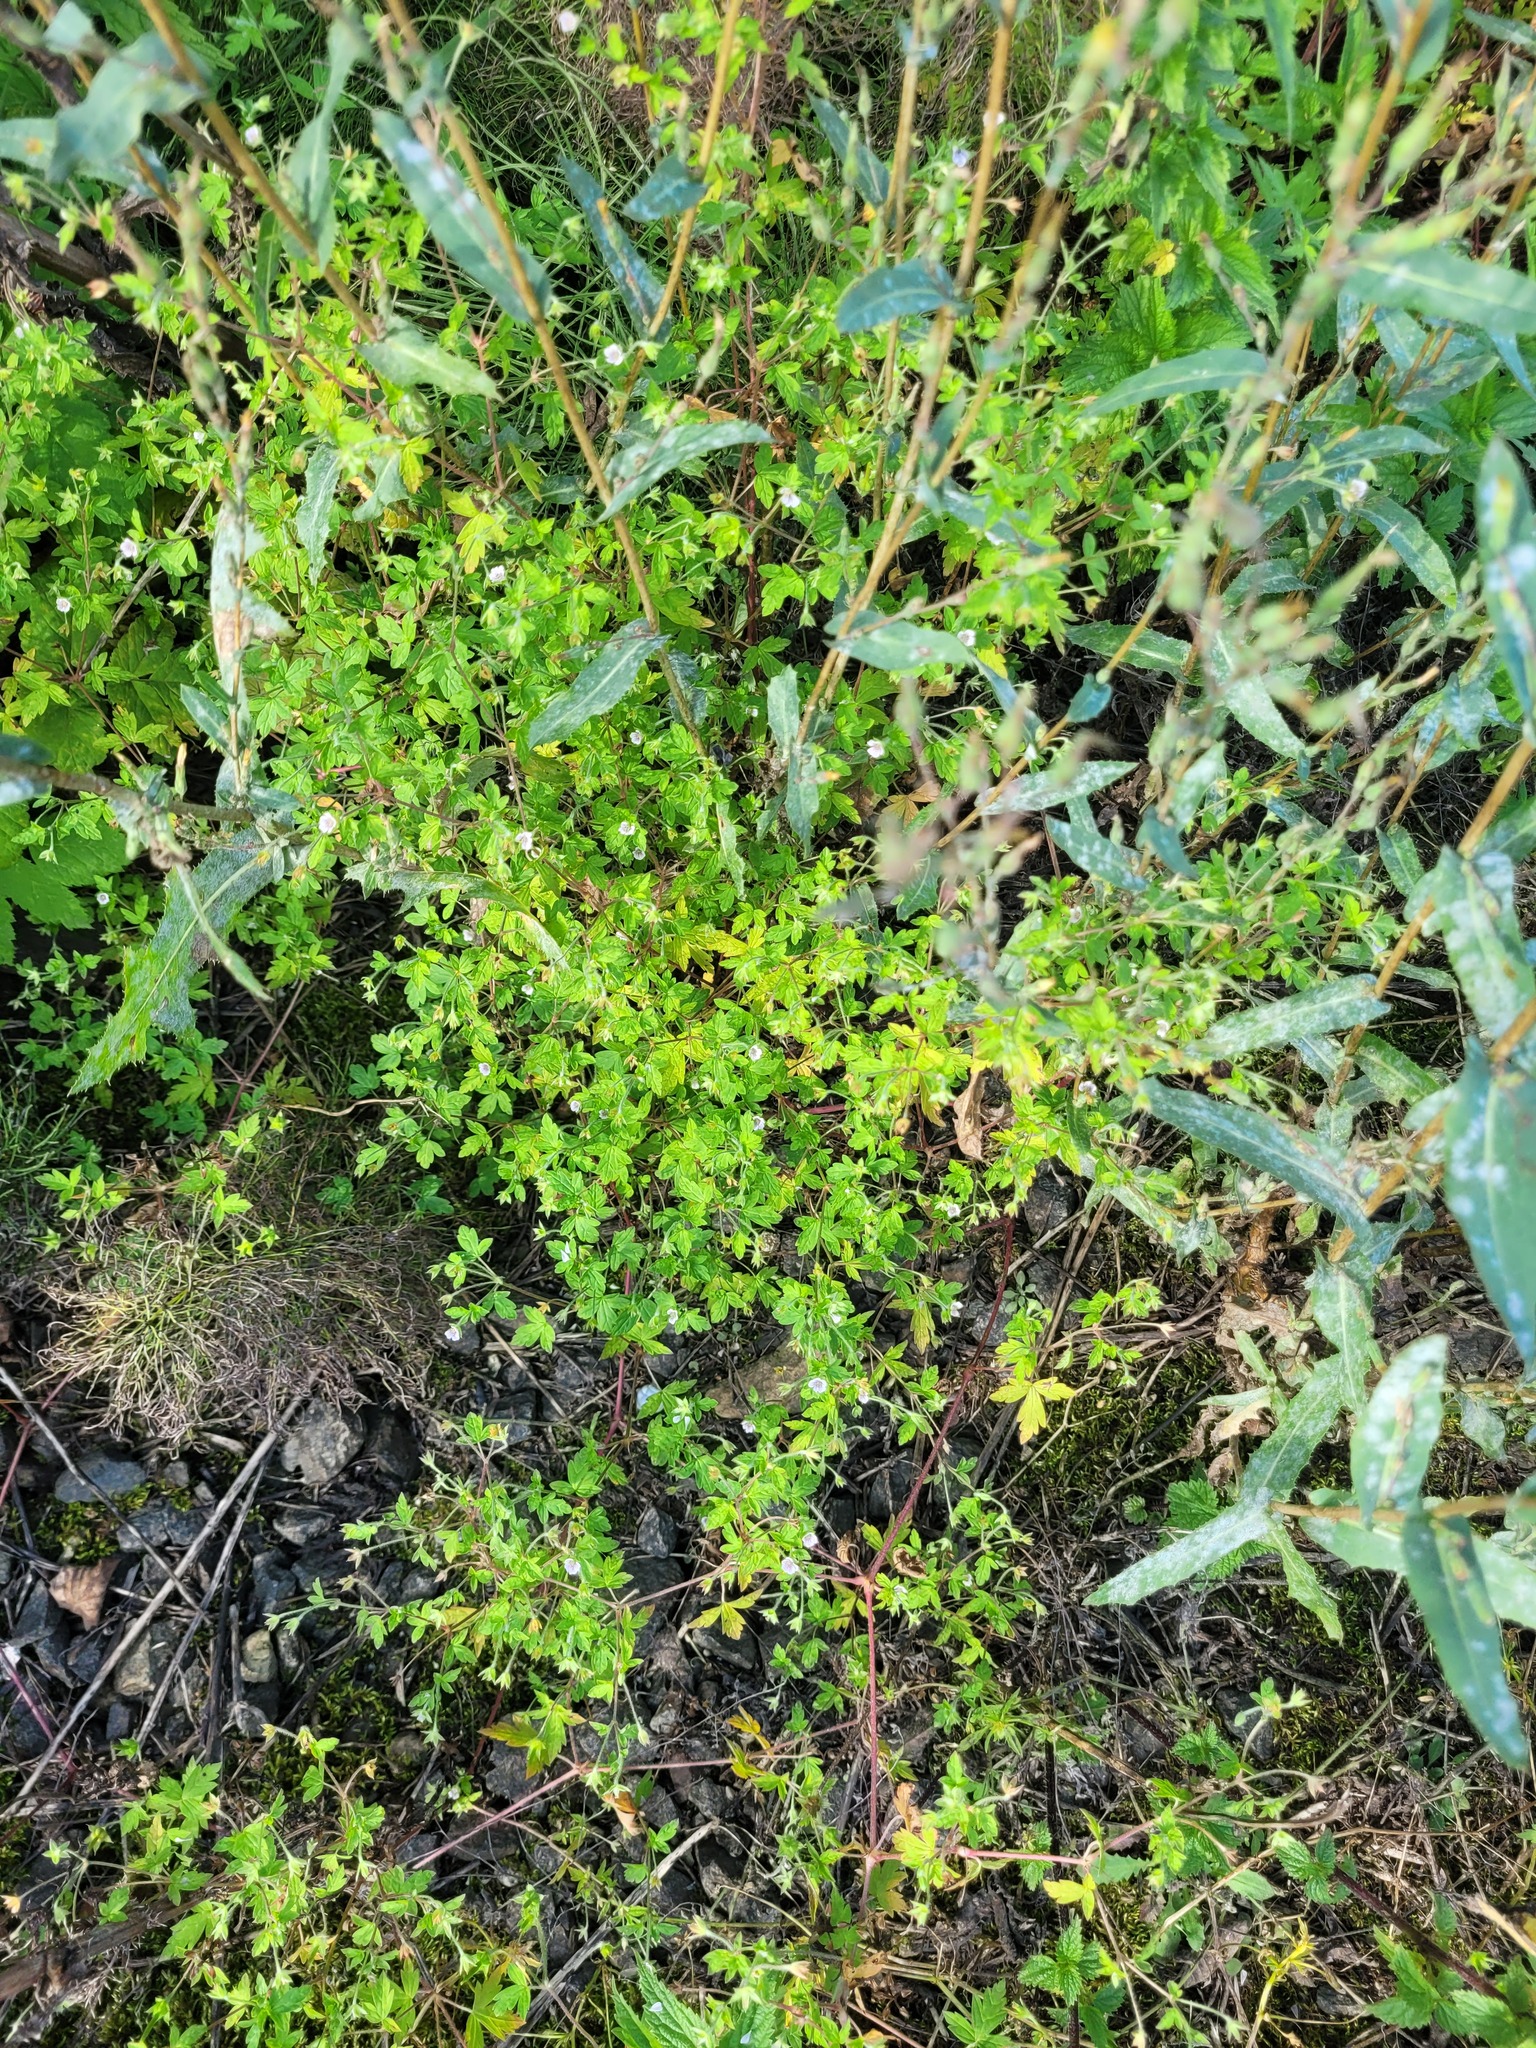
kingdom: Plantae
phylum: Tracheophyta
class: Magnoliopsida
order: Geraniales
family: Geraniaceae
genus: Geranium
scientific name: Geranium sibiricum
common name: Siberian crane's-bill
